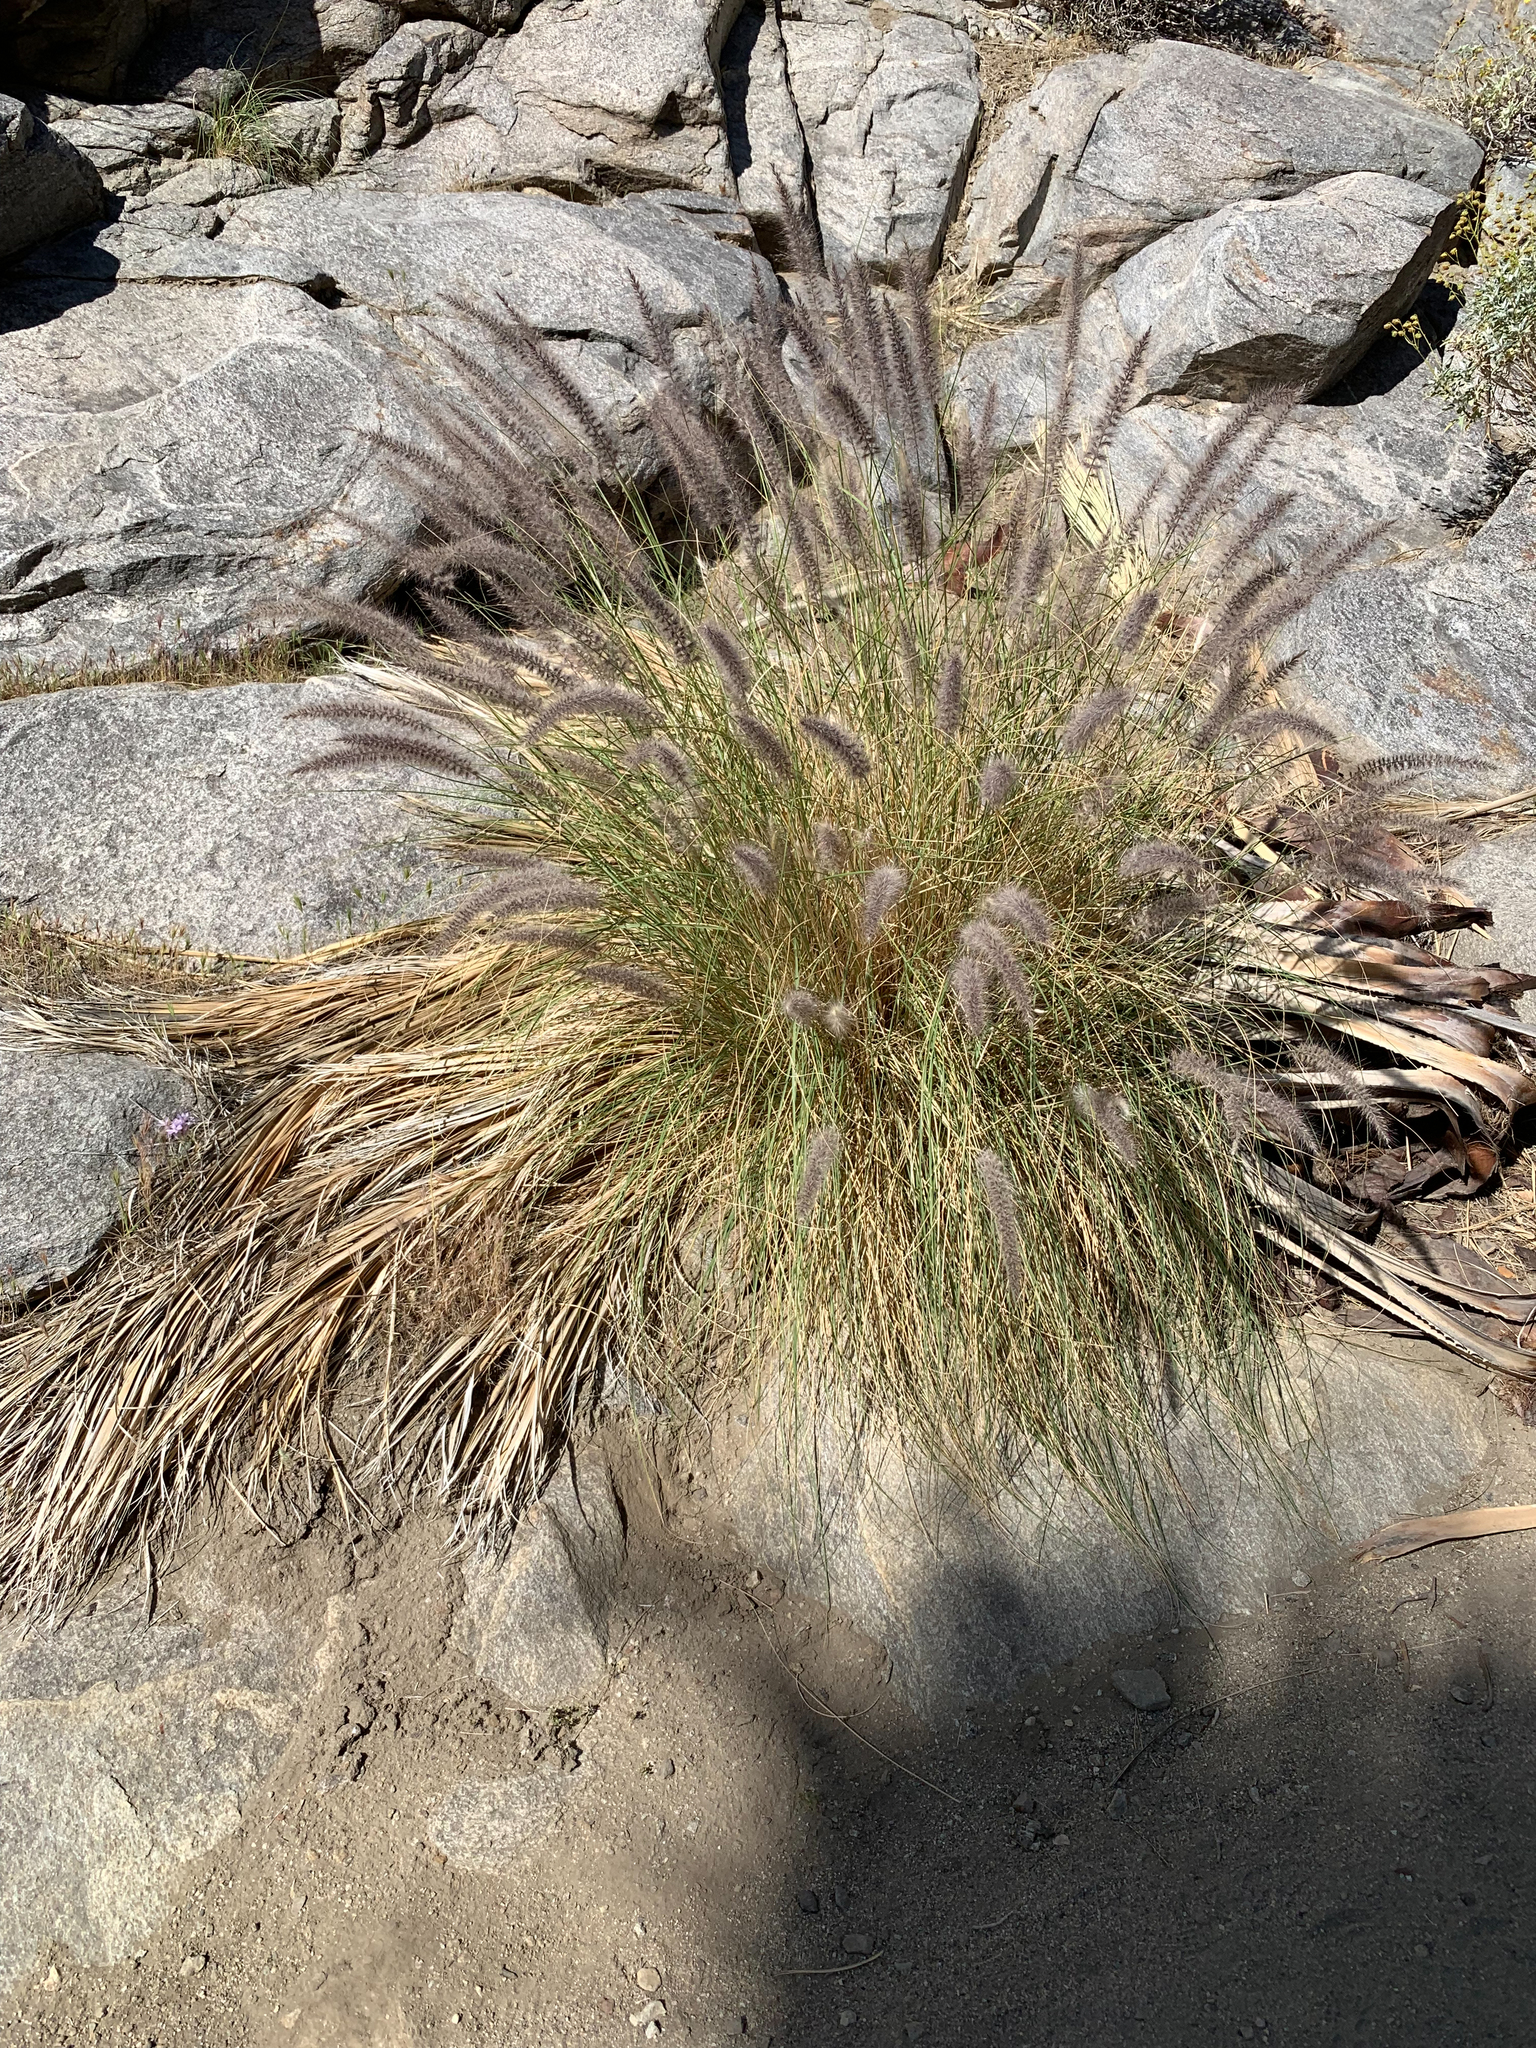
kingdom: Plantae
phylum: Tracheophyta
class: Liliopsida
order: Poales
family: Poaceae
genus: Cenchrus
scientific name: Cenchrus setaceus
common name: Crimson fountaingrass
